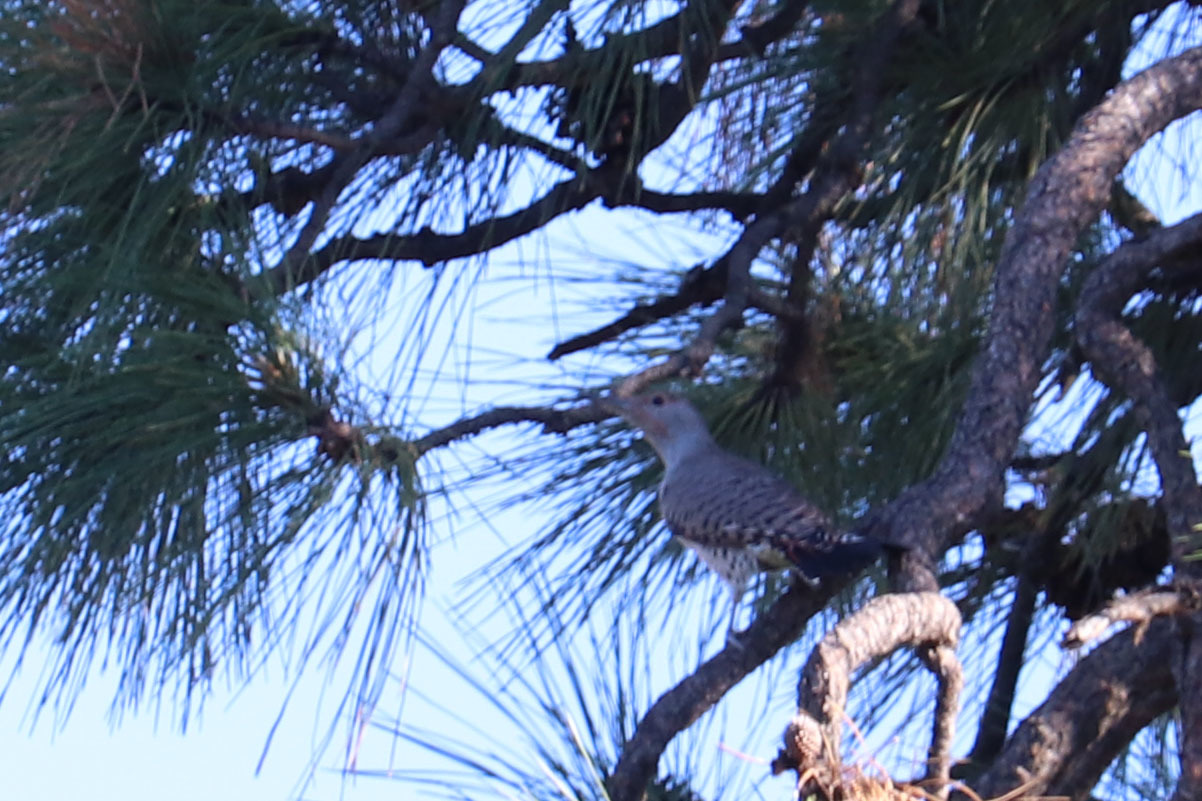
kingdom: Animalia
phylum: Chordata
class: Aves
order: Piciformes
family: Picidae
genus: Colaptes
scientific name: Colaptes auratus
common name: Northern flicker
